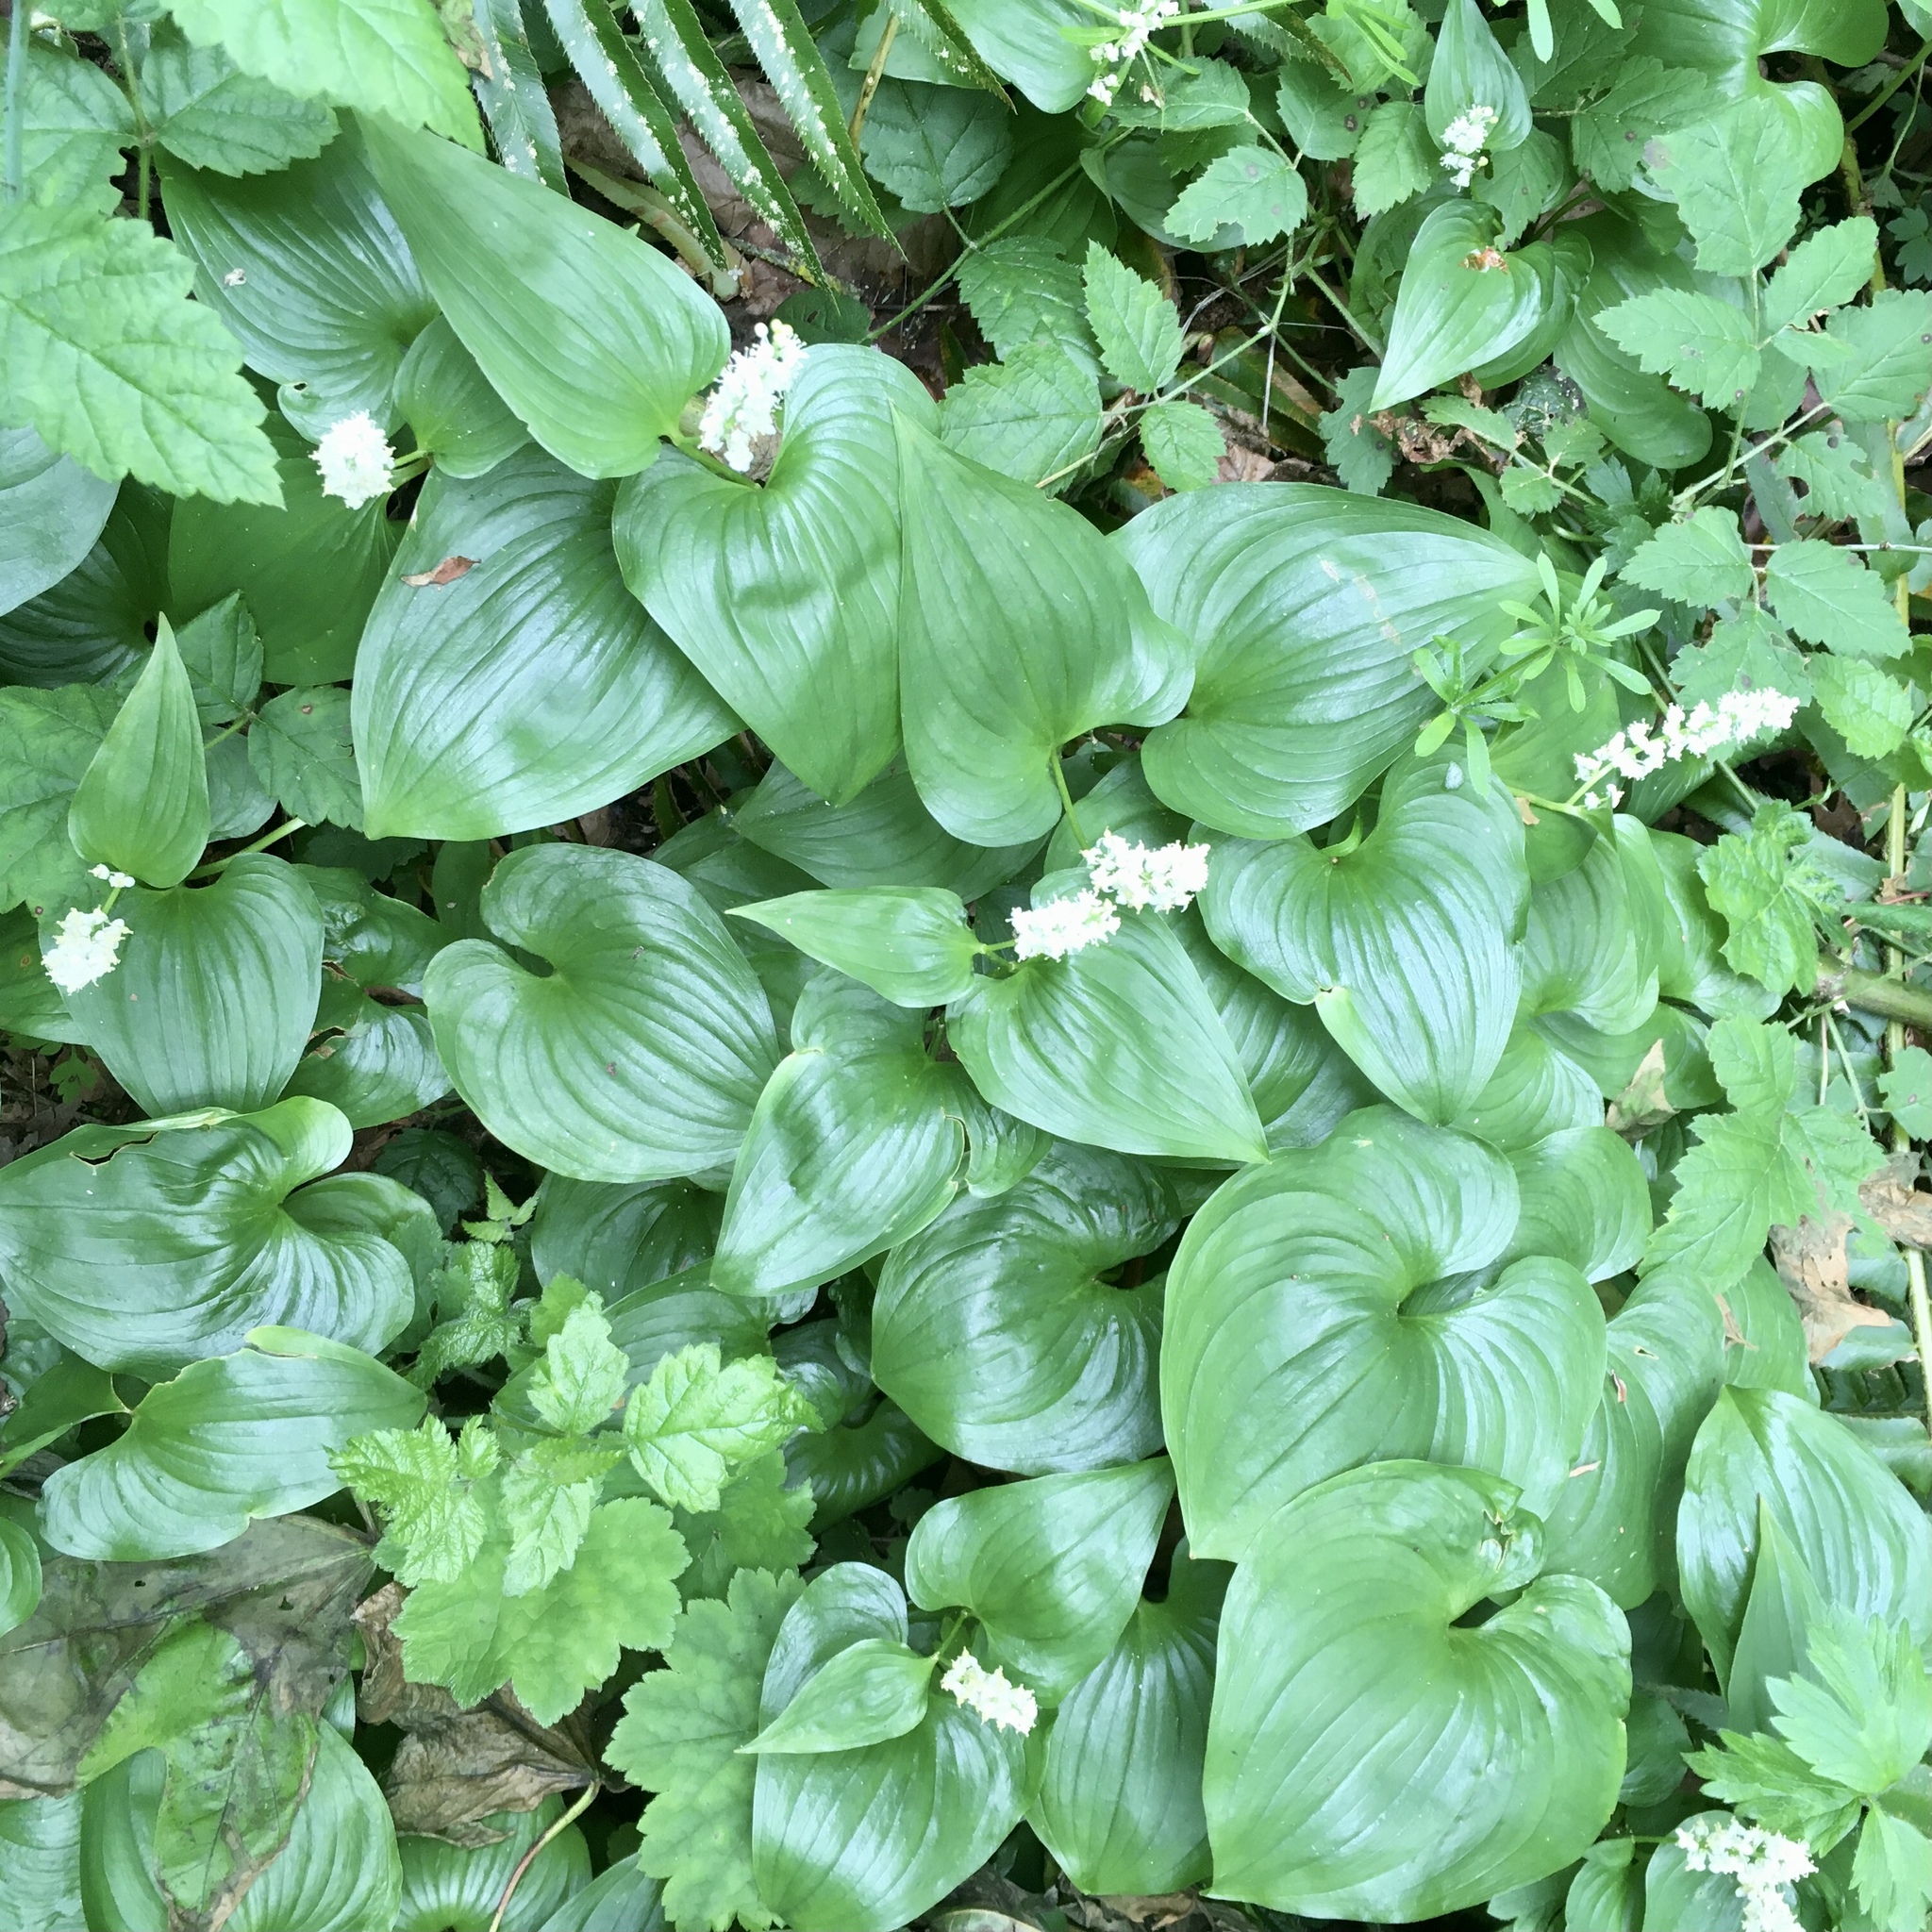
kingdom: Plantae
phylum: Tracheophyta
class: Liliopsida
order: Asparagales
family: Asparagaceae
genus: Maianthemum
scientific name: Maianthemum dilatatum
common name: False lily-of-the-valley
